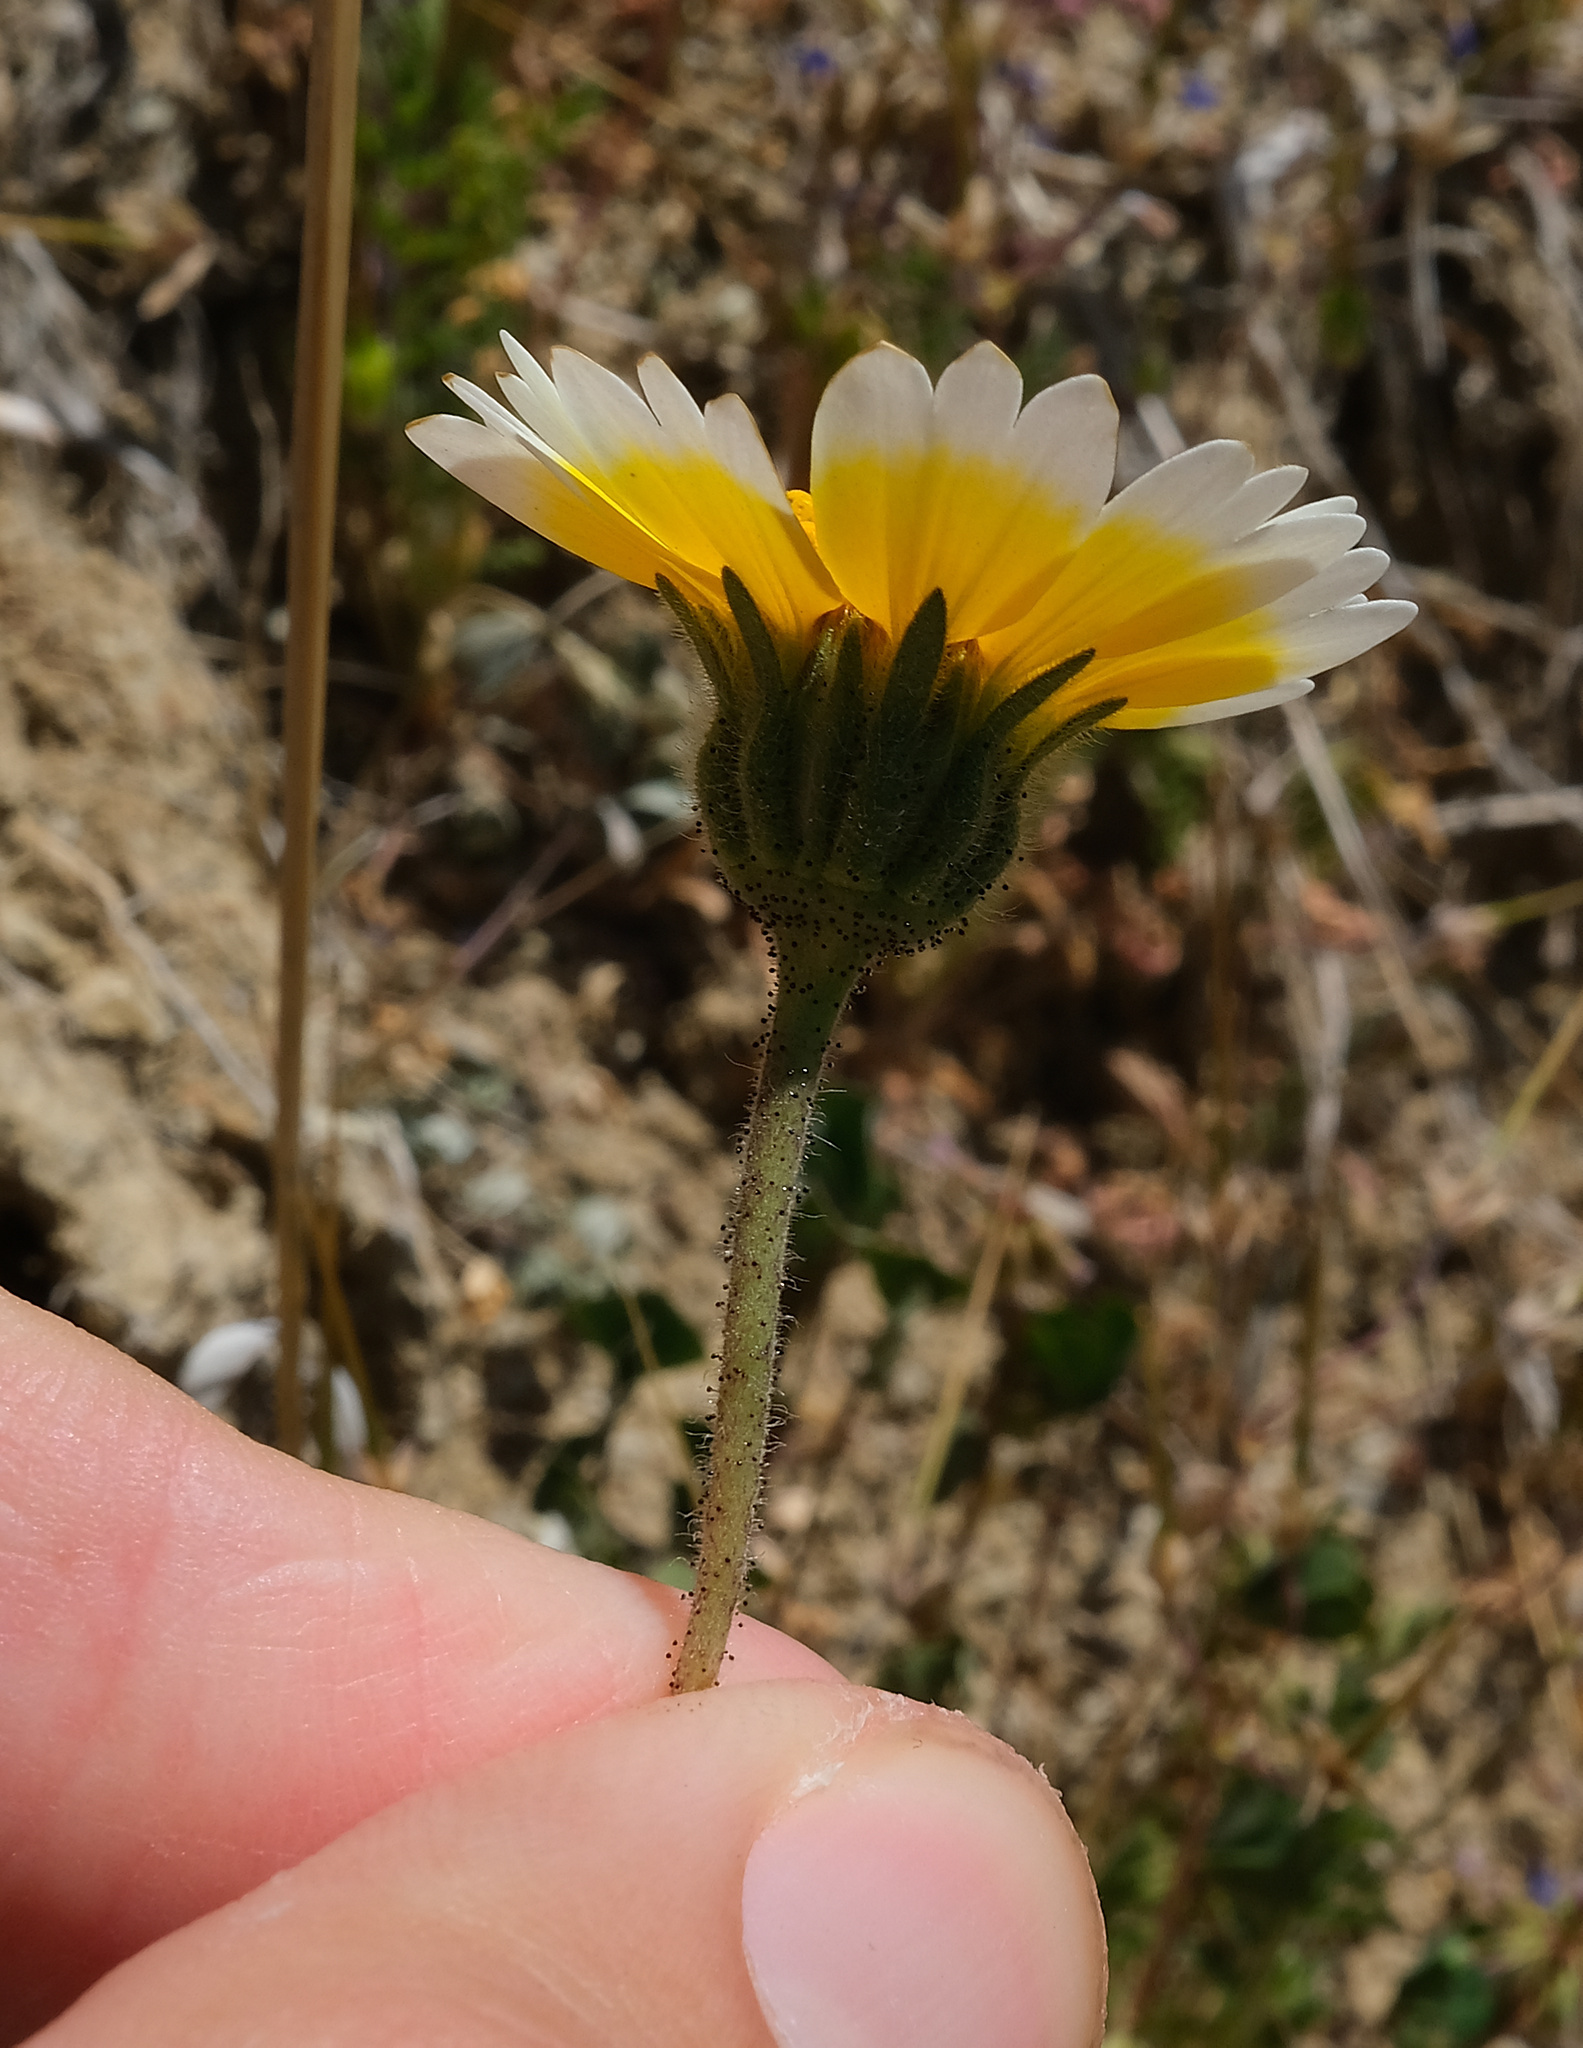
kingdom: Plantae
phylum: Tracheophyta
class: Magnoliopsida
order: Asterales
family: Asteraceae
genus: Layia
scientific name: Layia platyglossa
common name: Tidy-tips
